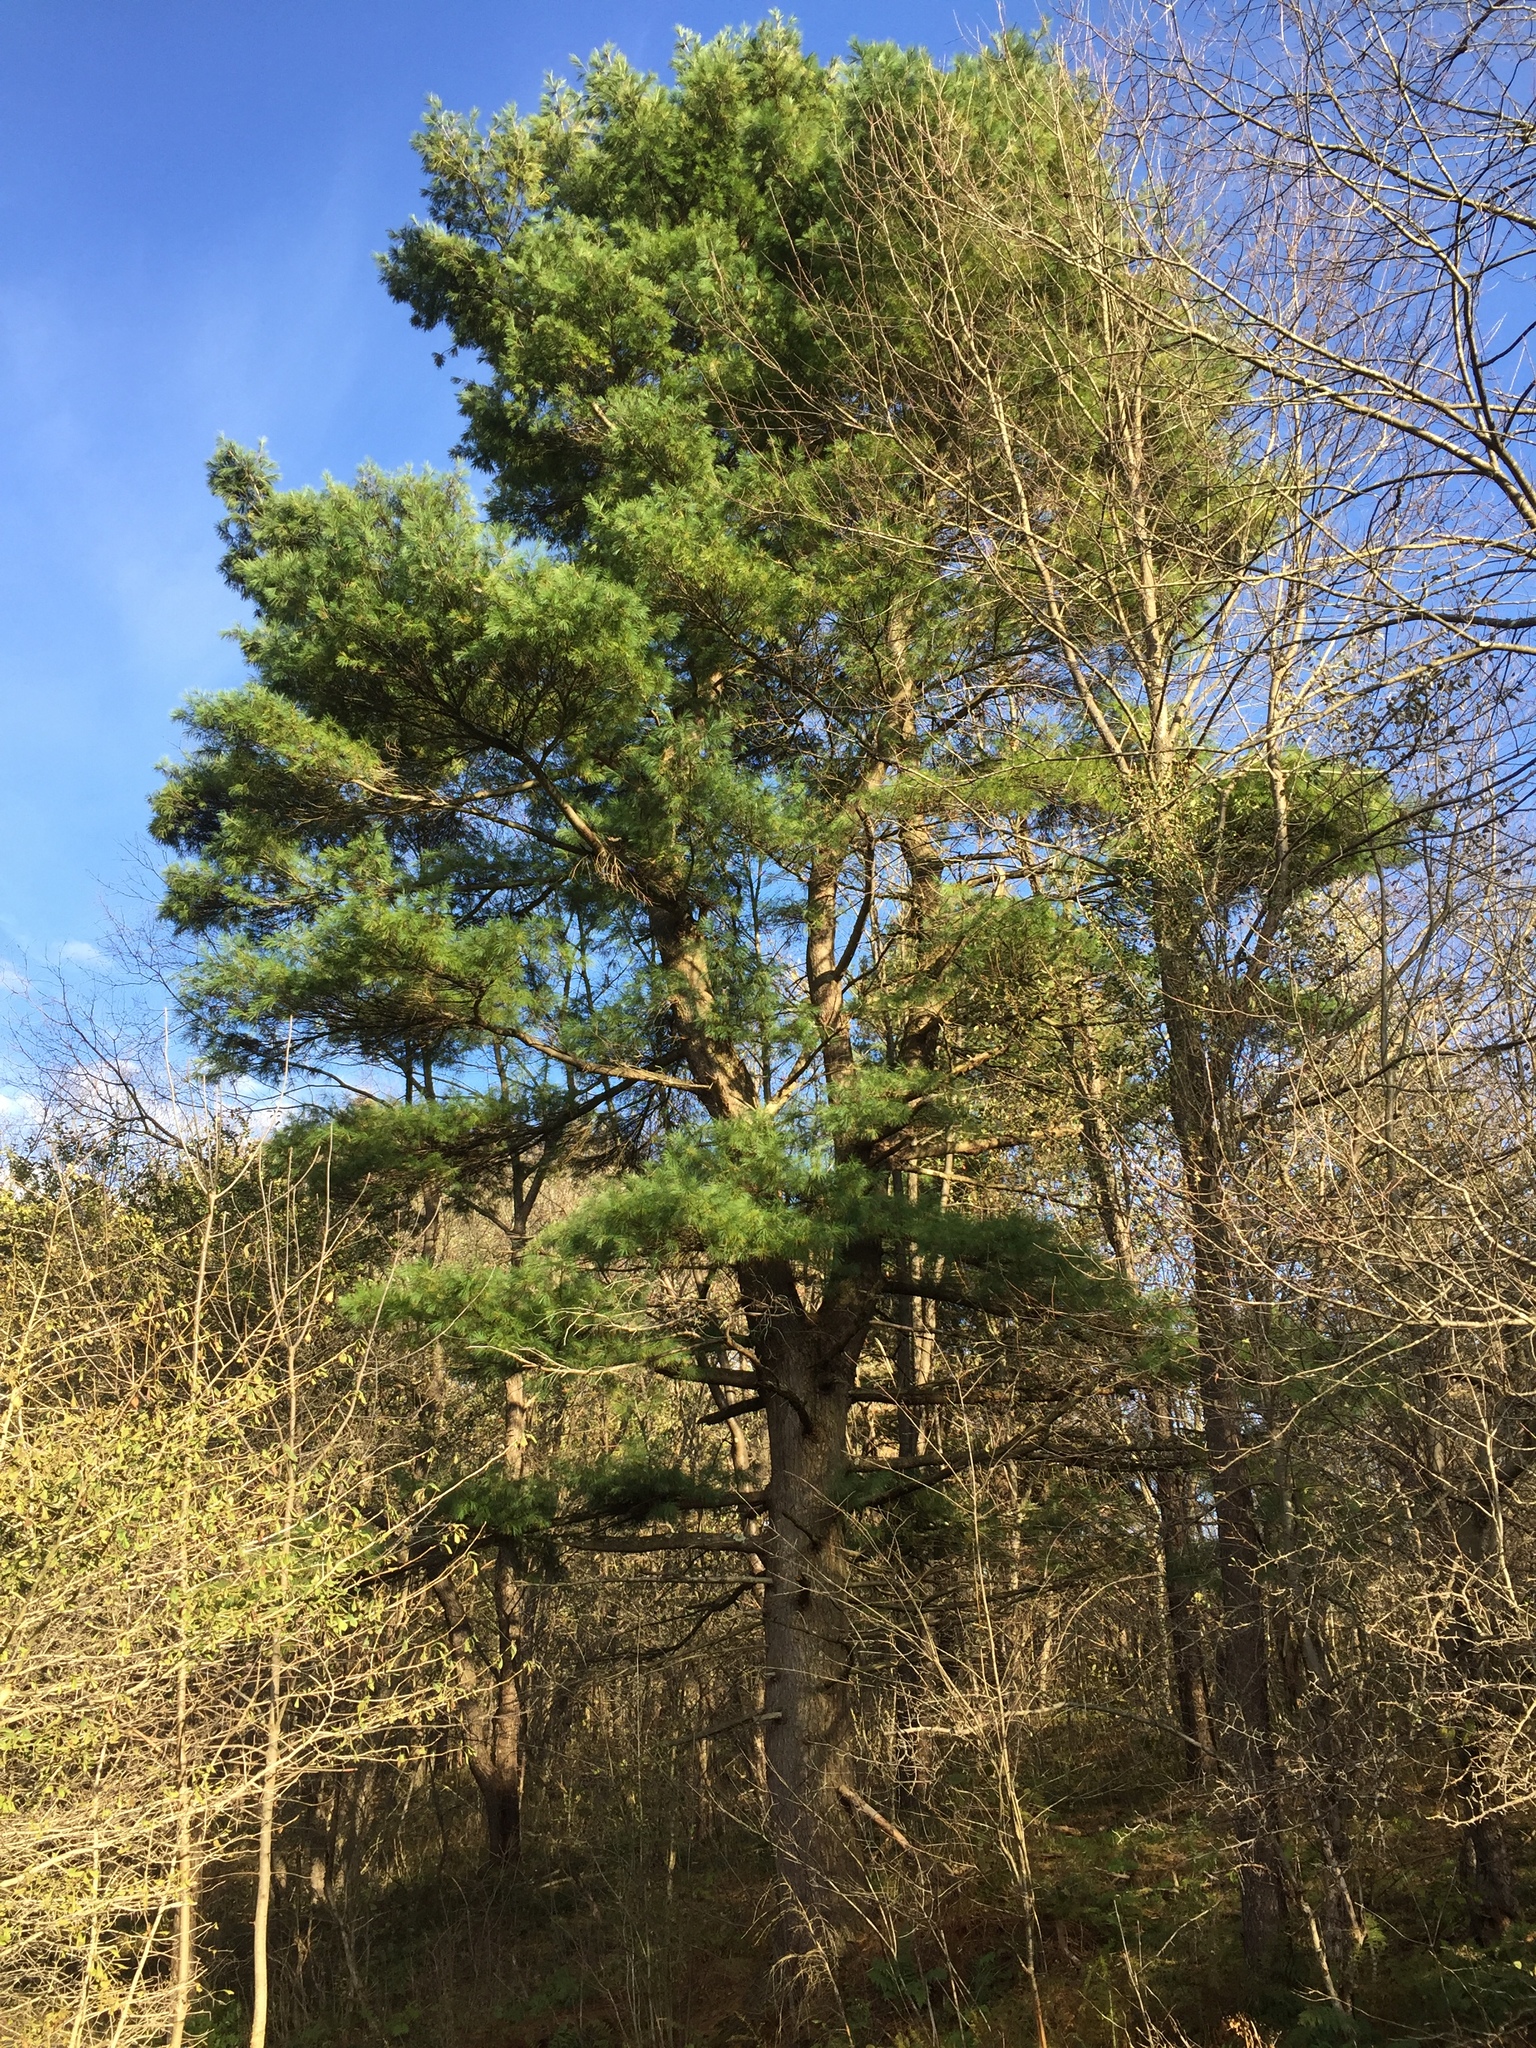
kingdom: Plantae
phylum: Tracheophyta
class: Pinopsida
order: Pinales
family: Pinaceae
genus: Pinus
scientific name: Pinus strobus
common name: Weymouth pine
